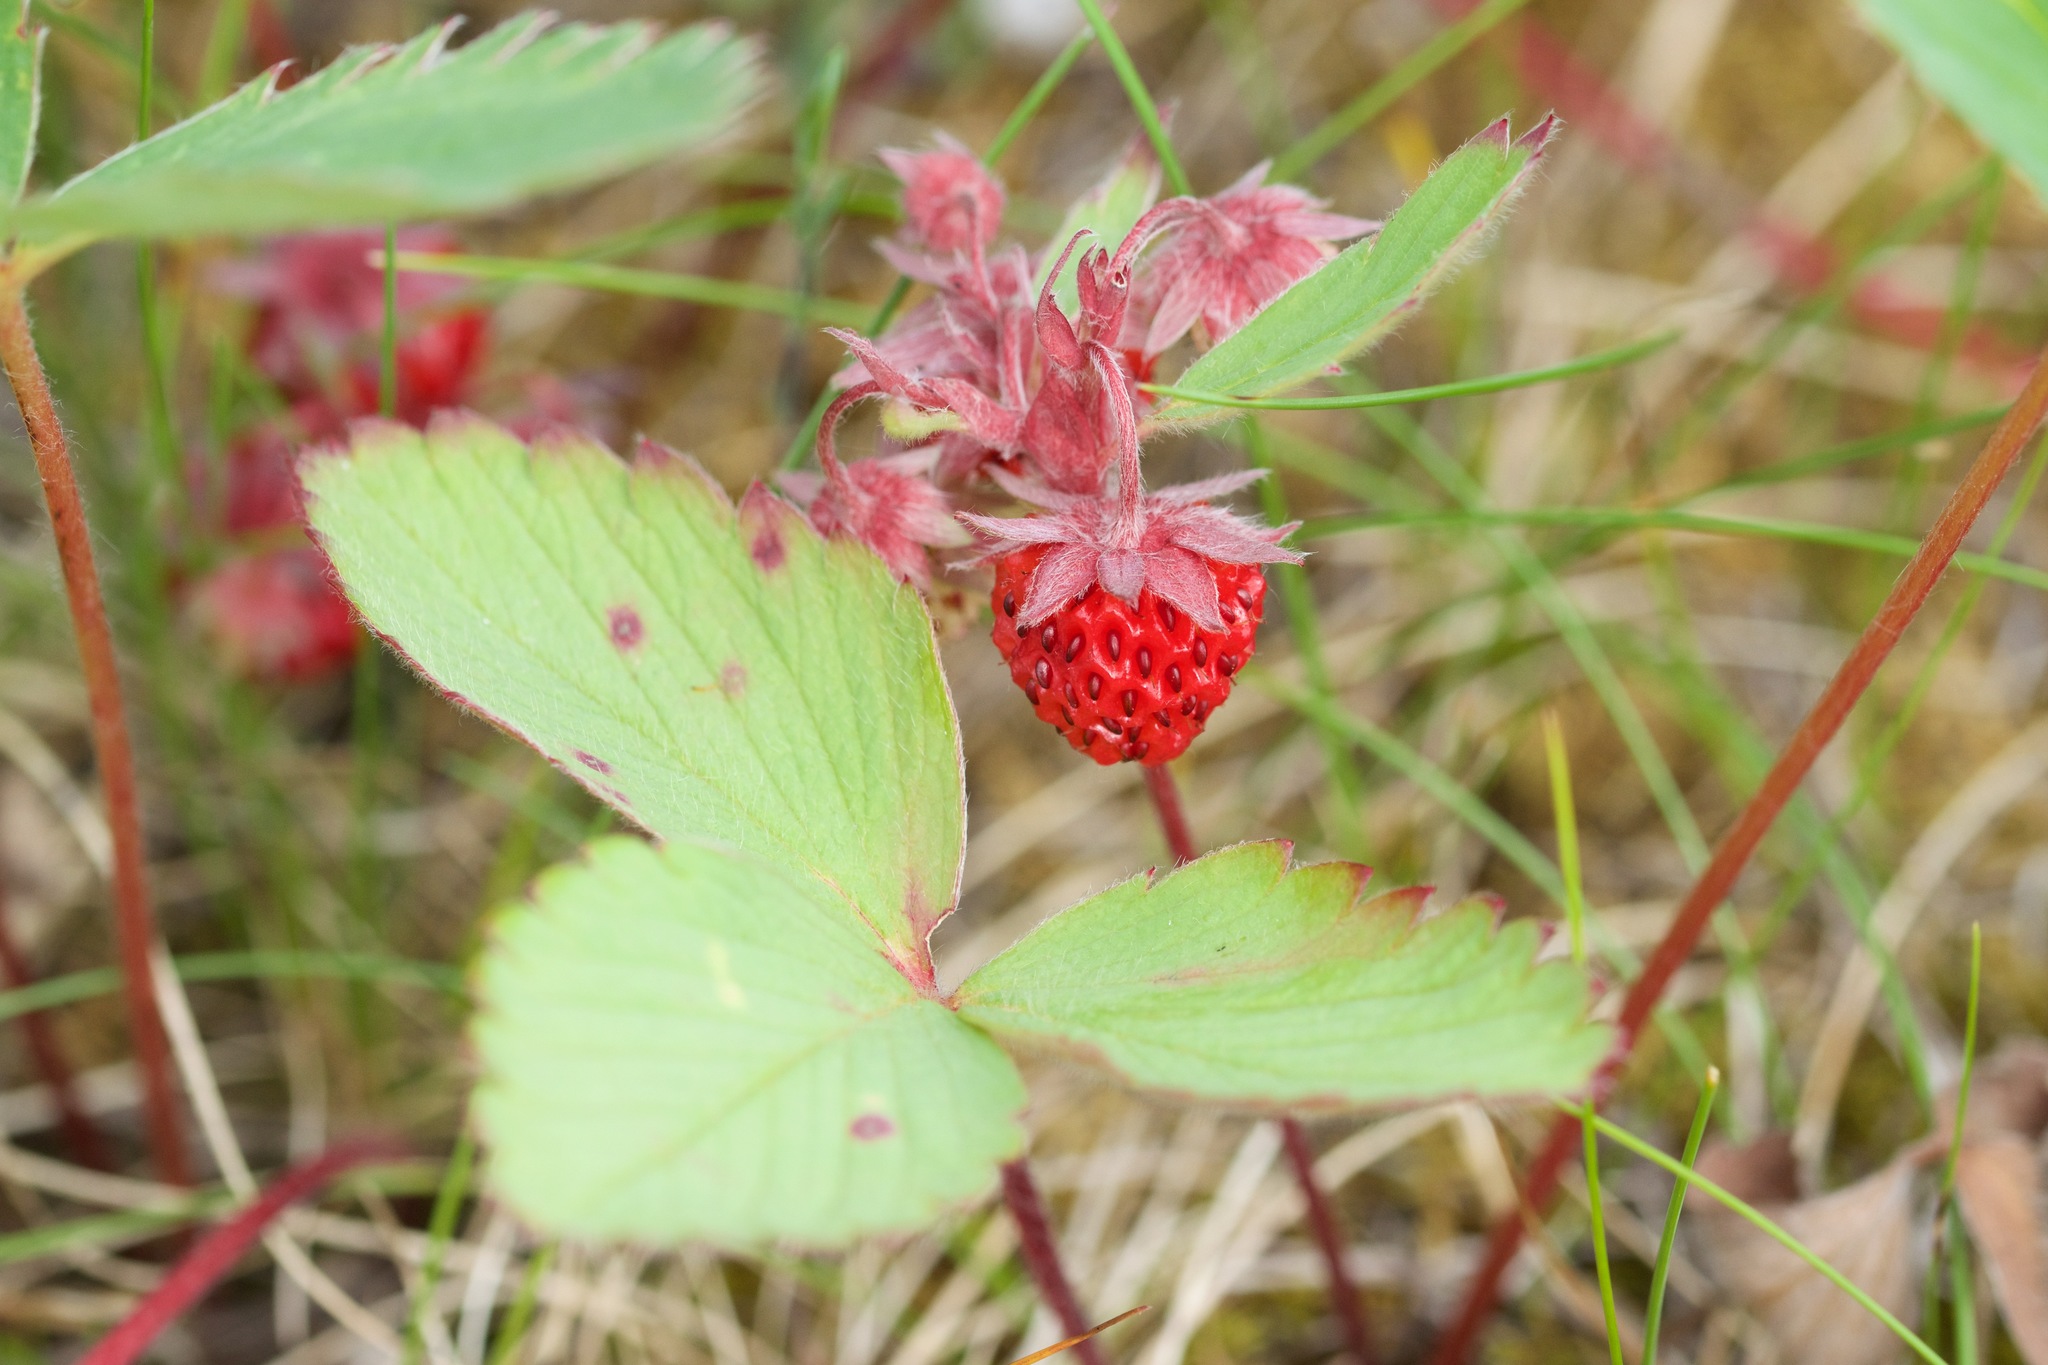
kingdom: Plantae
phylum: Tracheophyta
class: Magnoliopsida
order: Rosales
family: Rosaceae
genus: Fragaria
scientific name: Fragaria virginiana
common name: Thickleaved wild strawberry
